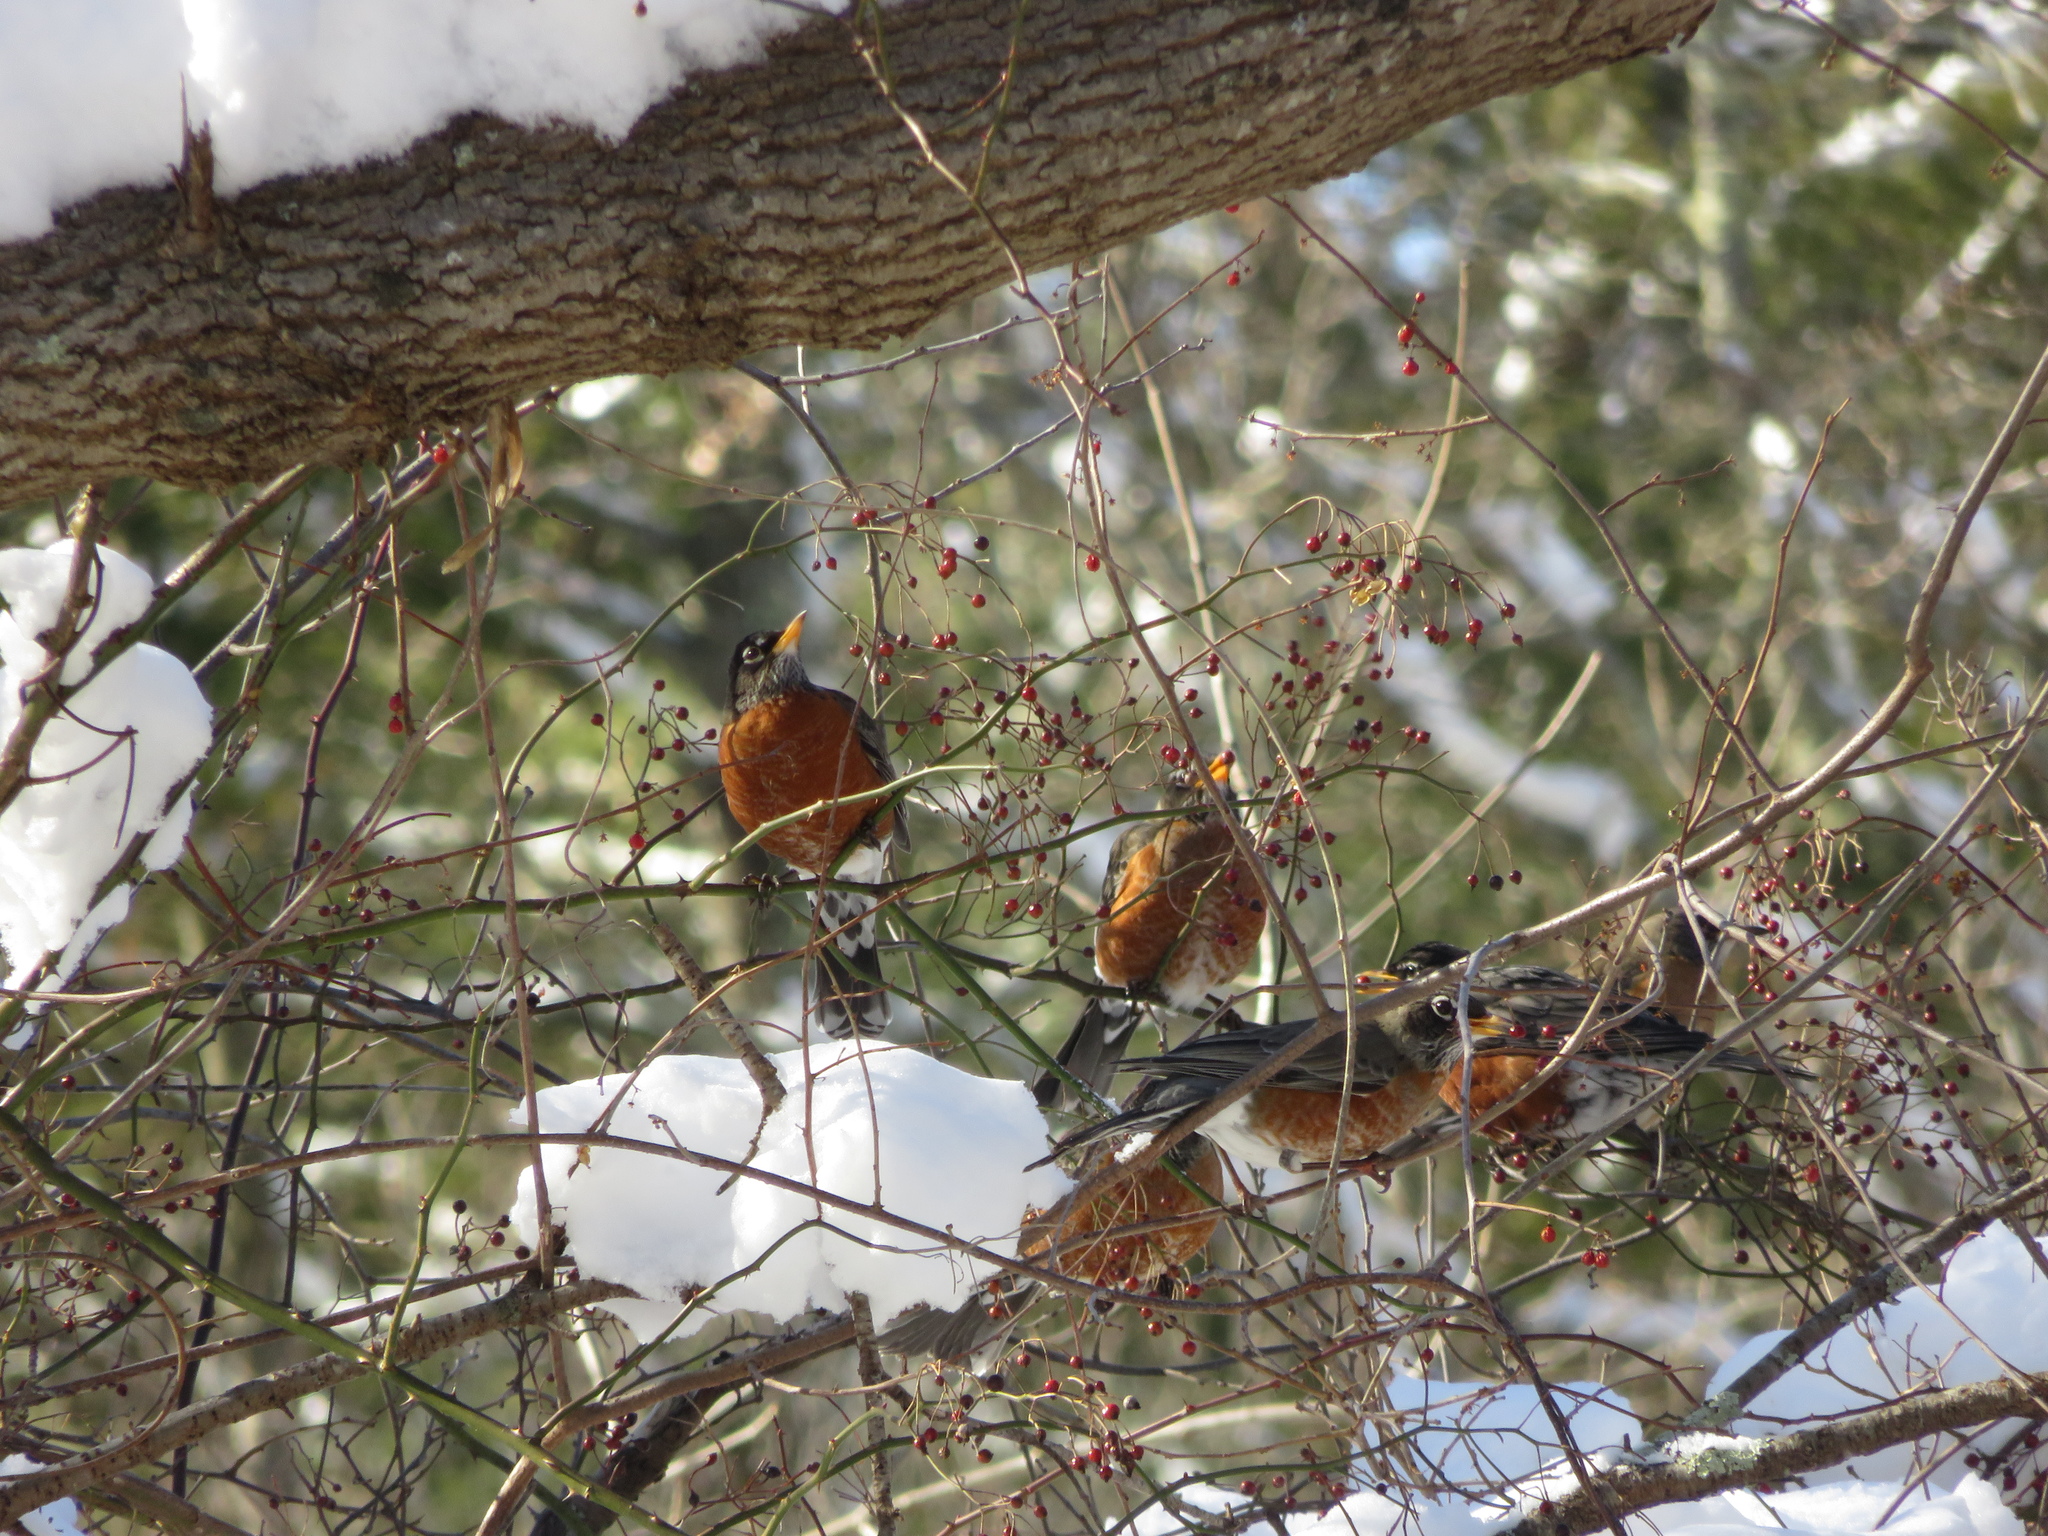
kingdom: Animalia
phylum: Chordata
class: Aves
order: Passeriformes
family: Turdidae
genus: Turdus
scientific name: Turdus migratorius
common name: American robin
